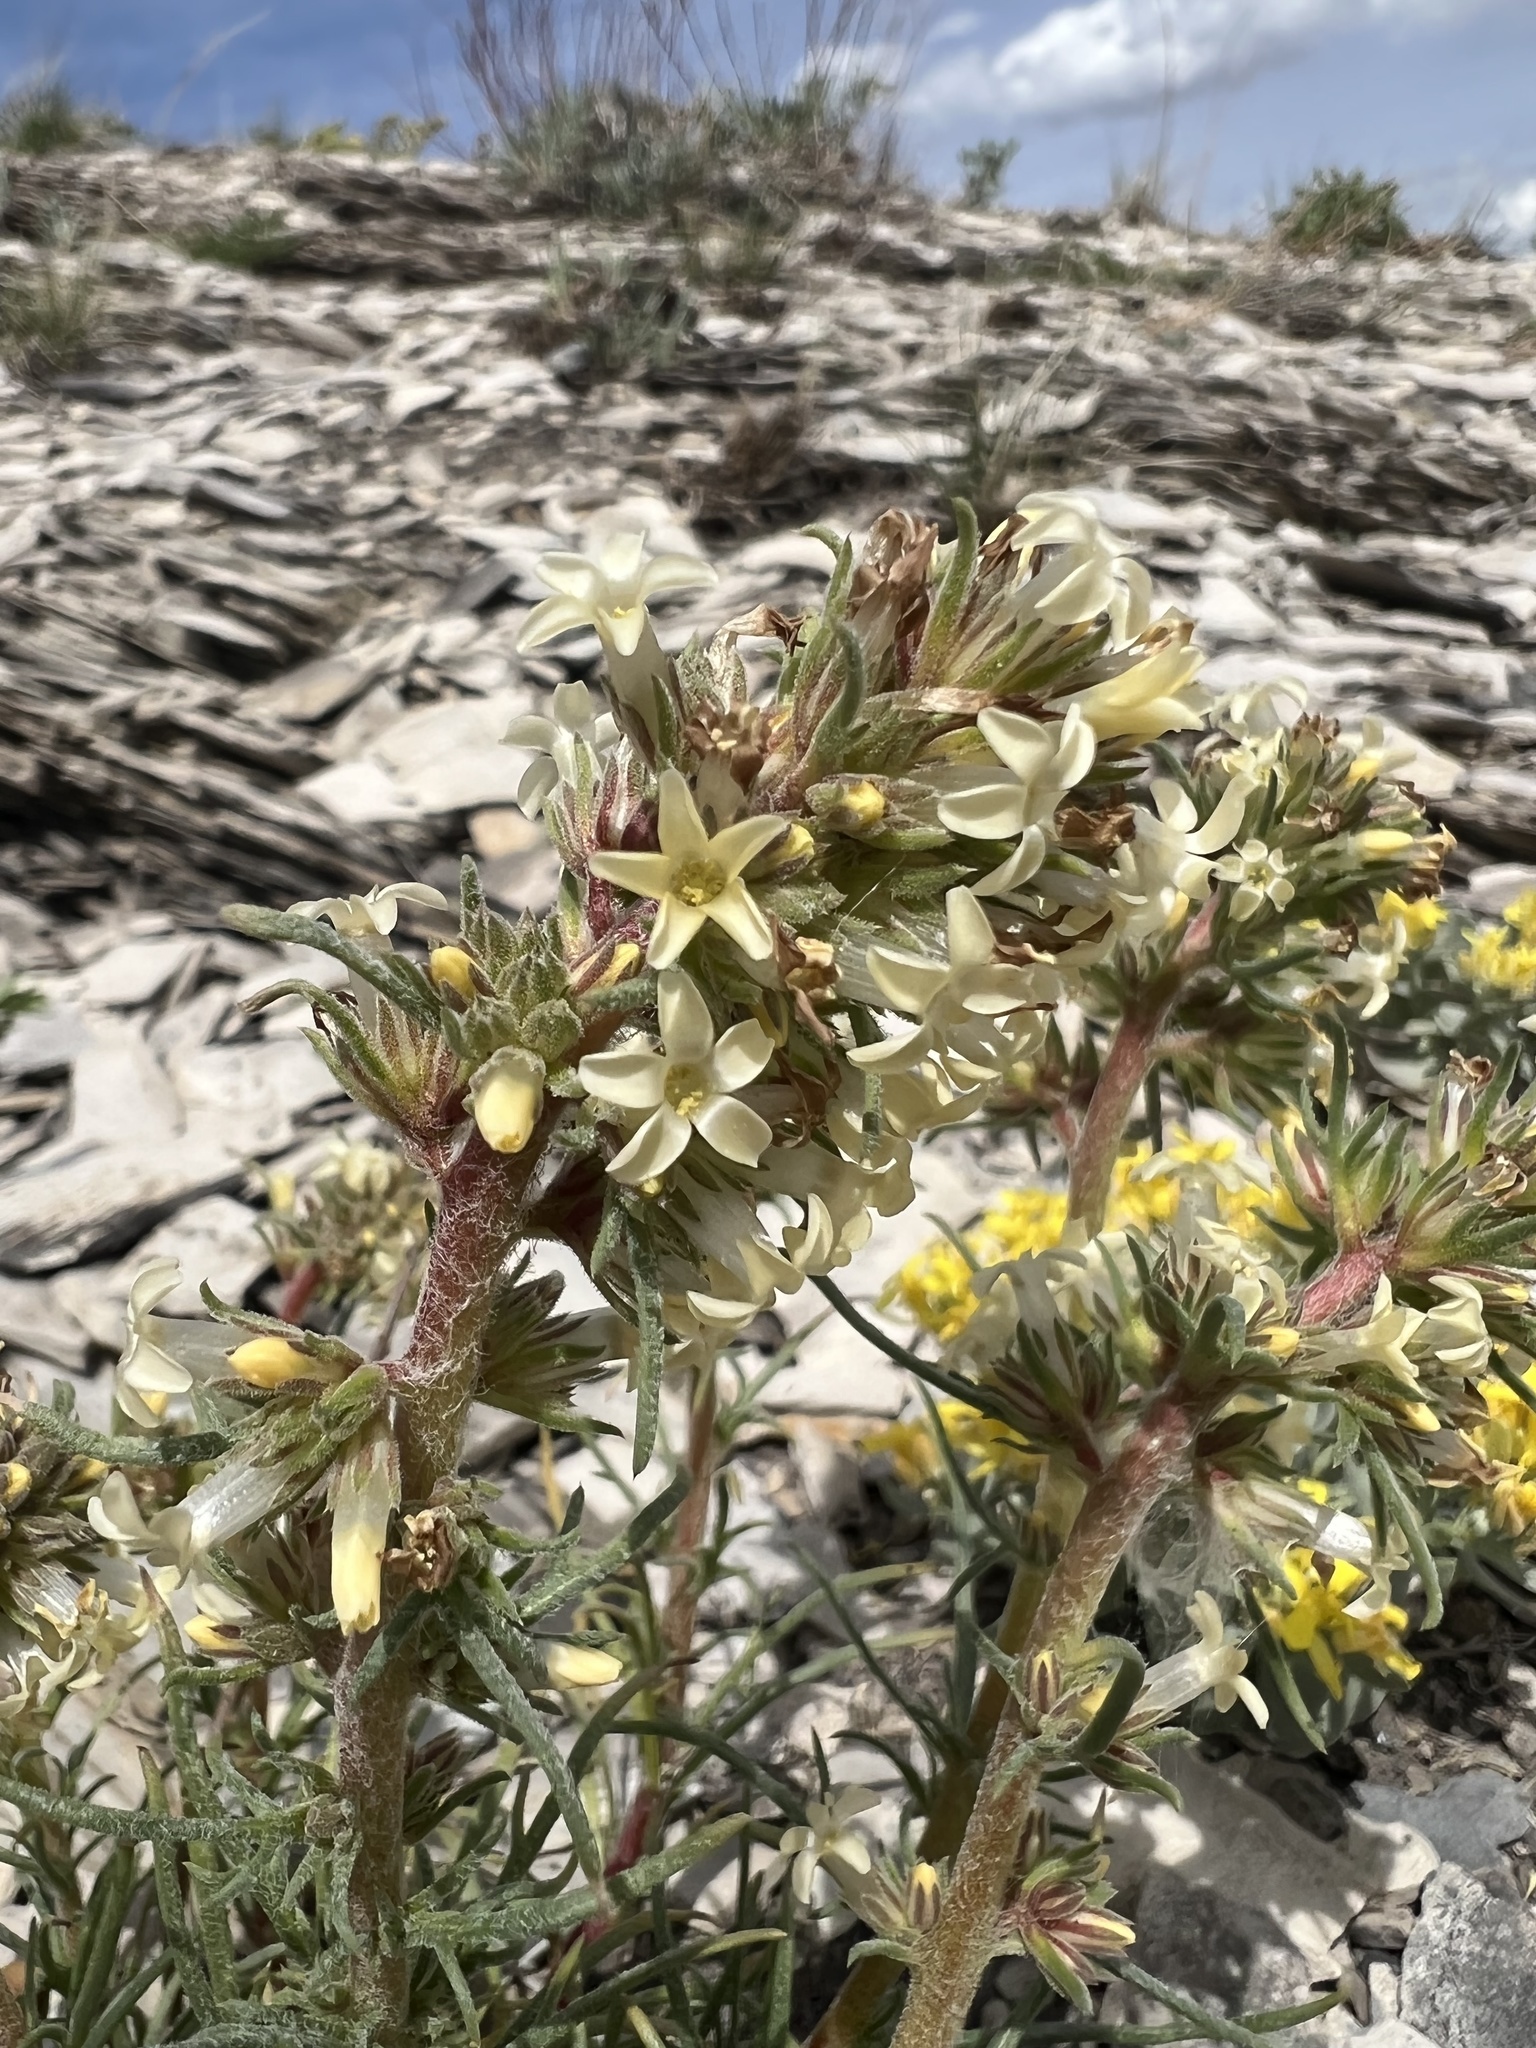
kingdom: Plantae
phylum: Tracheophyta
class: Magnoliopsida
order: Ericales
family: Polemoniaceae
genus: Ipomopsis
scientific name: Ipomopsis spicata
